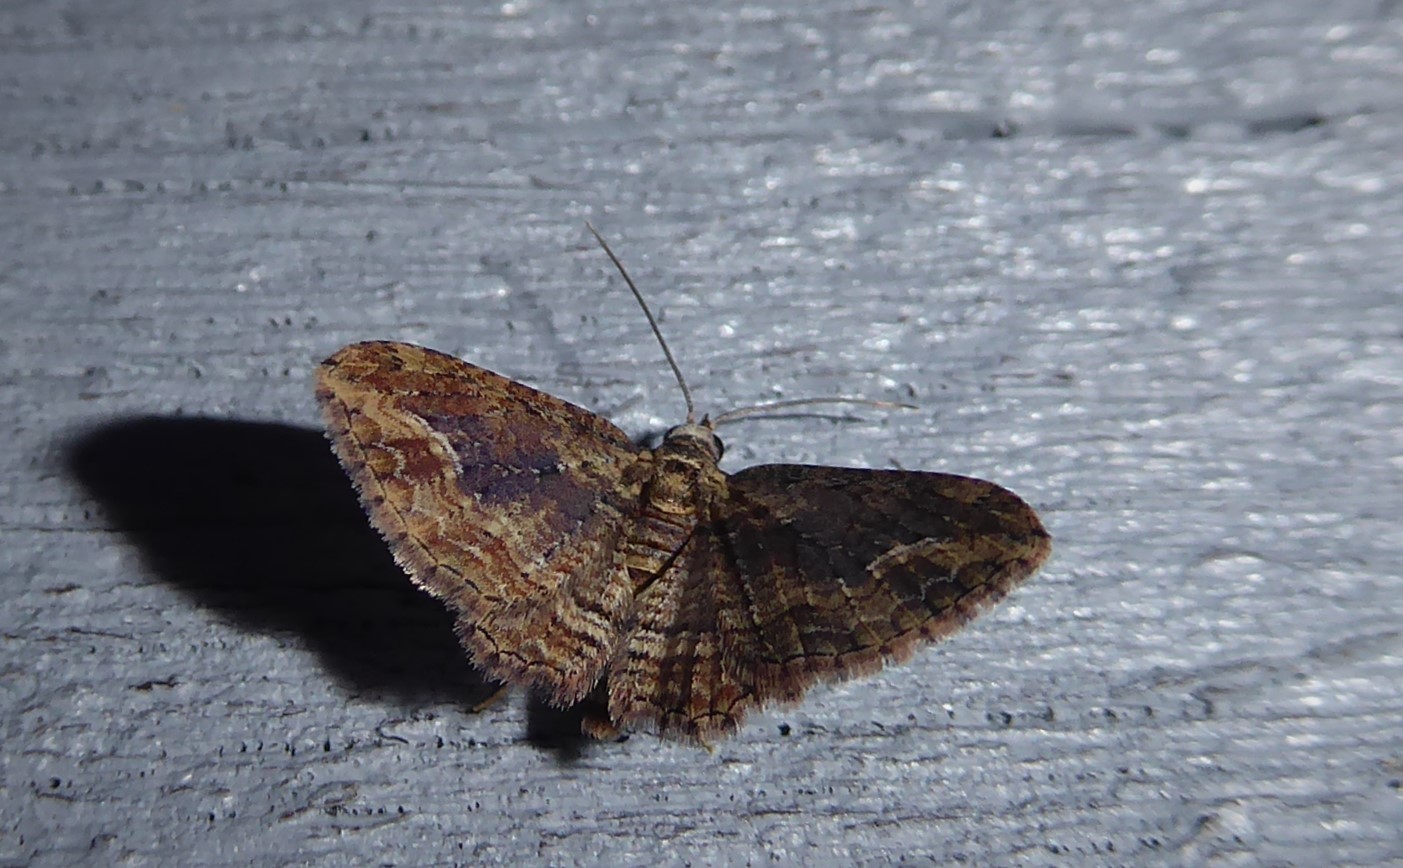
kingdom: Animalia
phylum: Arthropoda
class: Insecta
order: Lepidoptera
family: Geometridae
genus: Chloroclystis
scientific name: Chloroclystis filata
